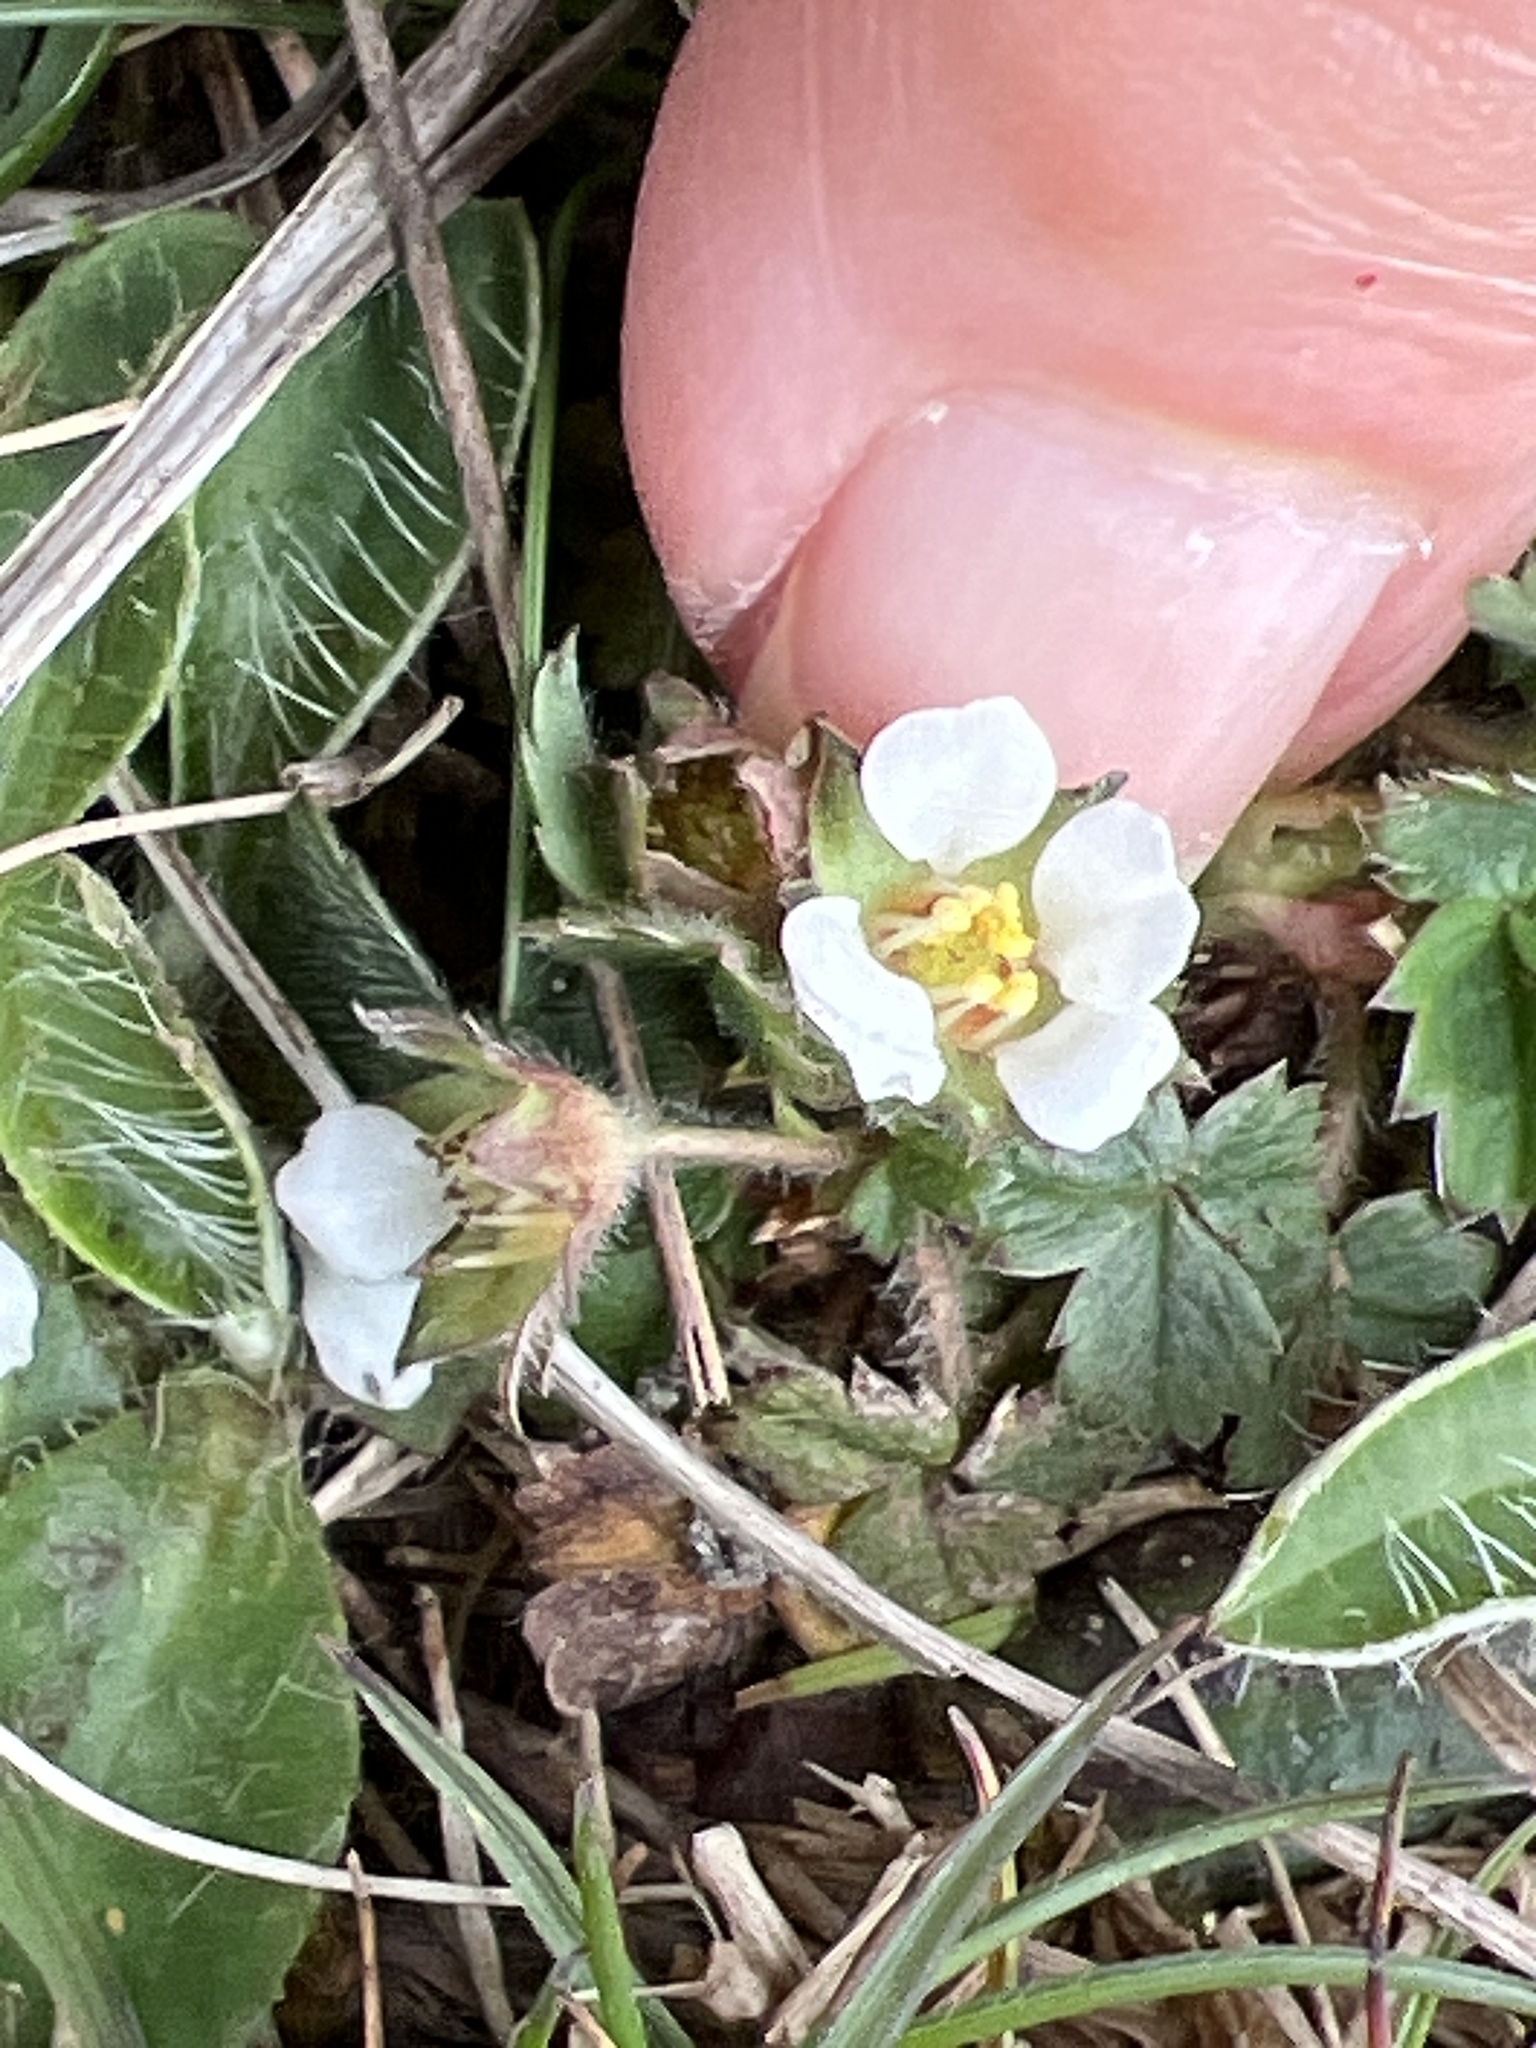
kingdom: Plantae
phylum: Tracheophyta
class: Magnoliopsida
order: Rosales
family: Rosaceae
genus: Potentilla
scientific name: Potentilla sterilis
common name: Barren strawberry
